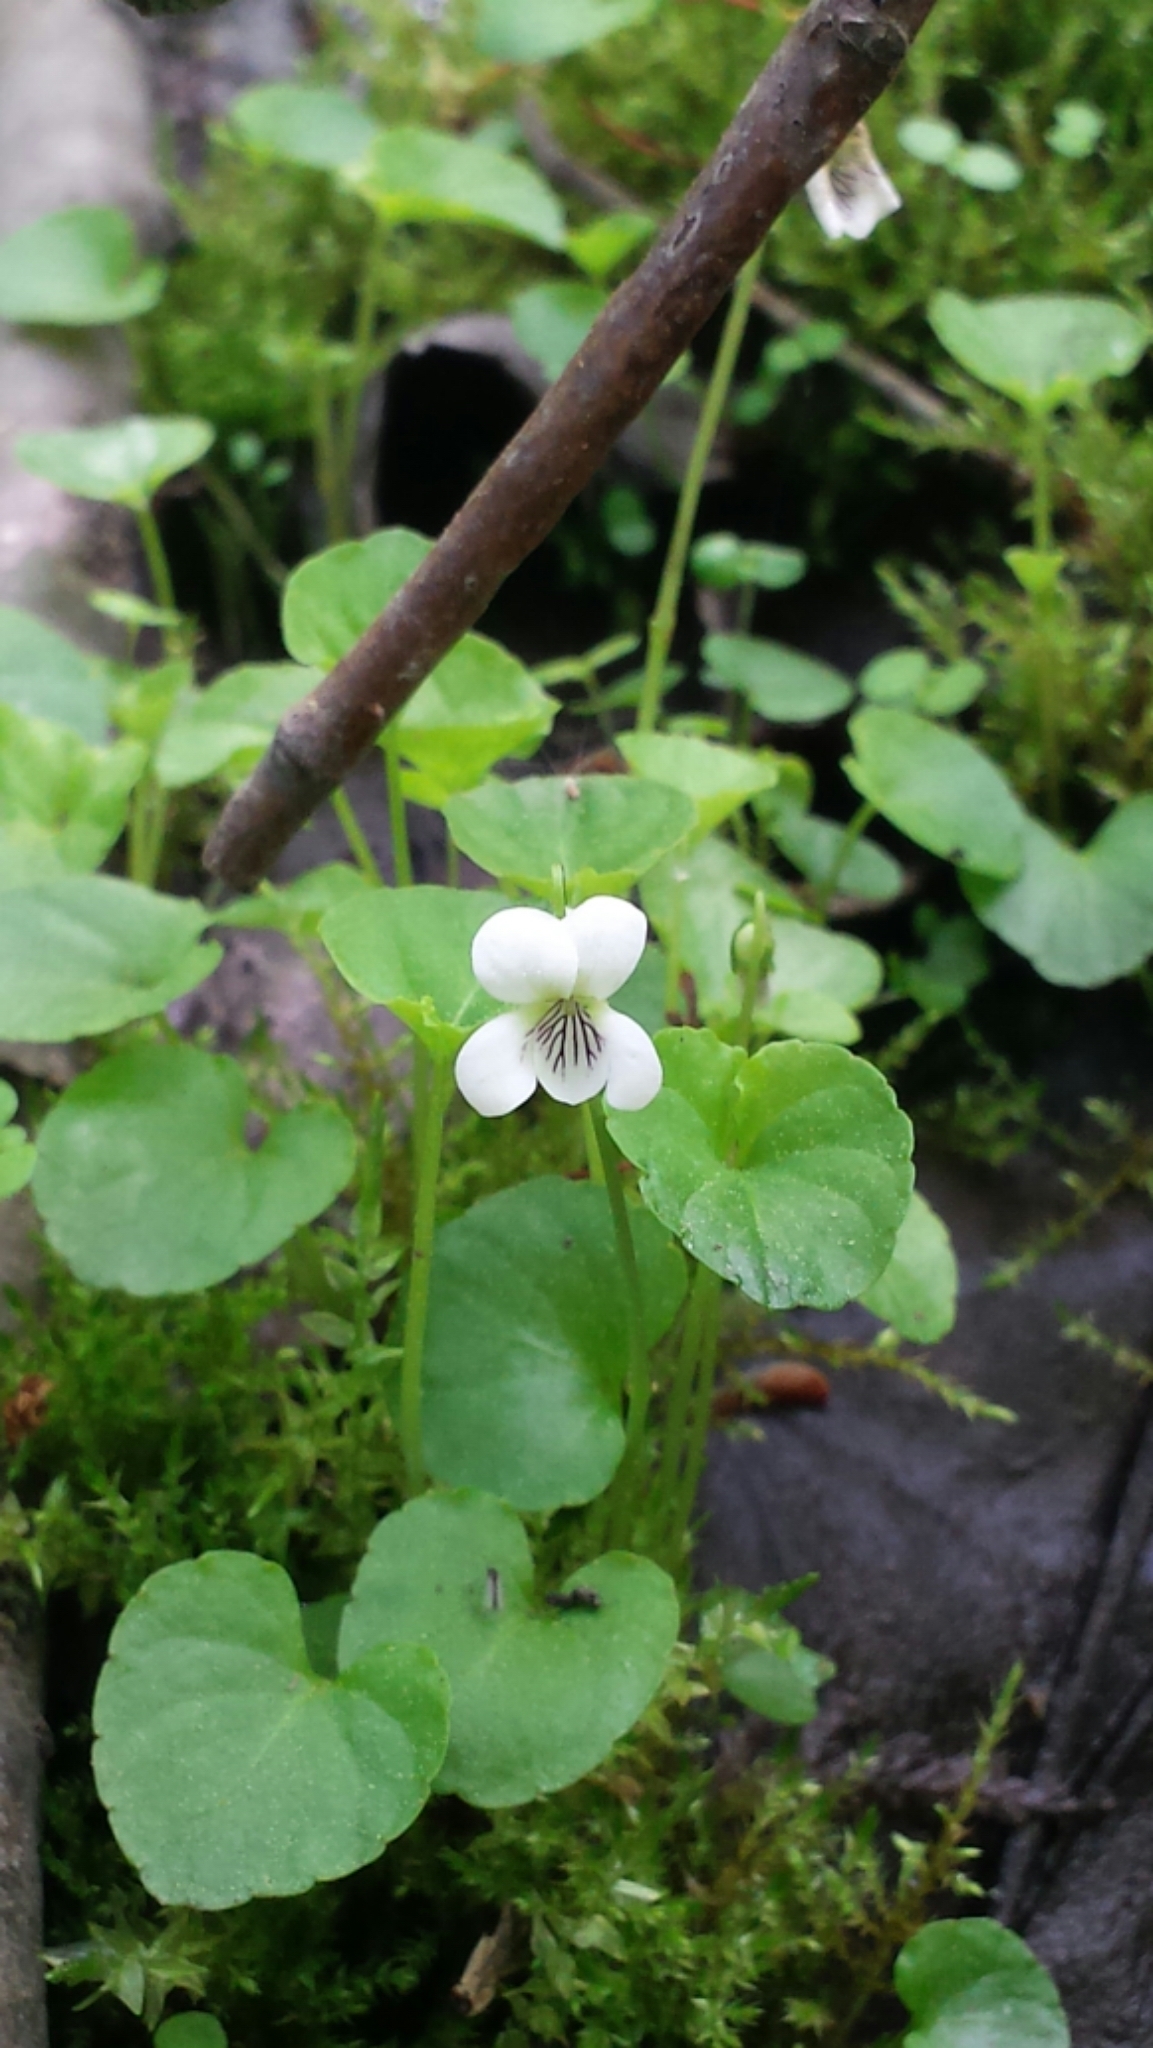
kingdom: Plantae
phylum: Tracheophyta
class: Magnoliopsida
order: Malpighiales
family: Violaceae
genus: Viola
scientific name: Viola blanda
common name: Sweet white violet
